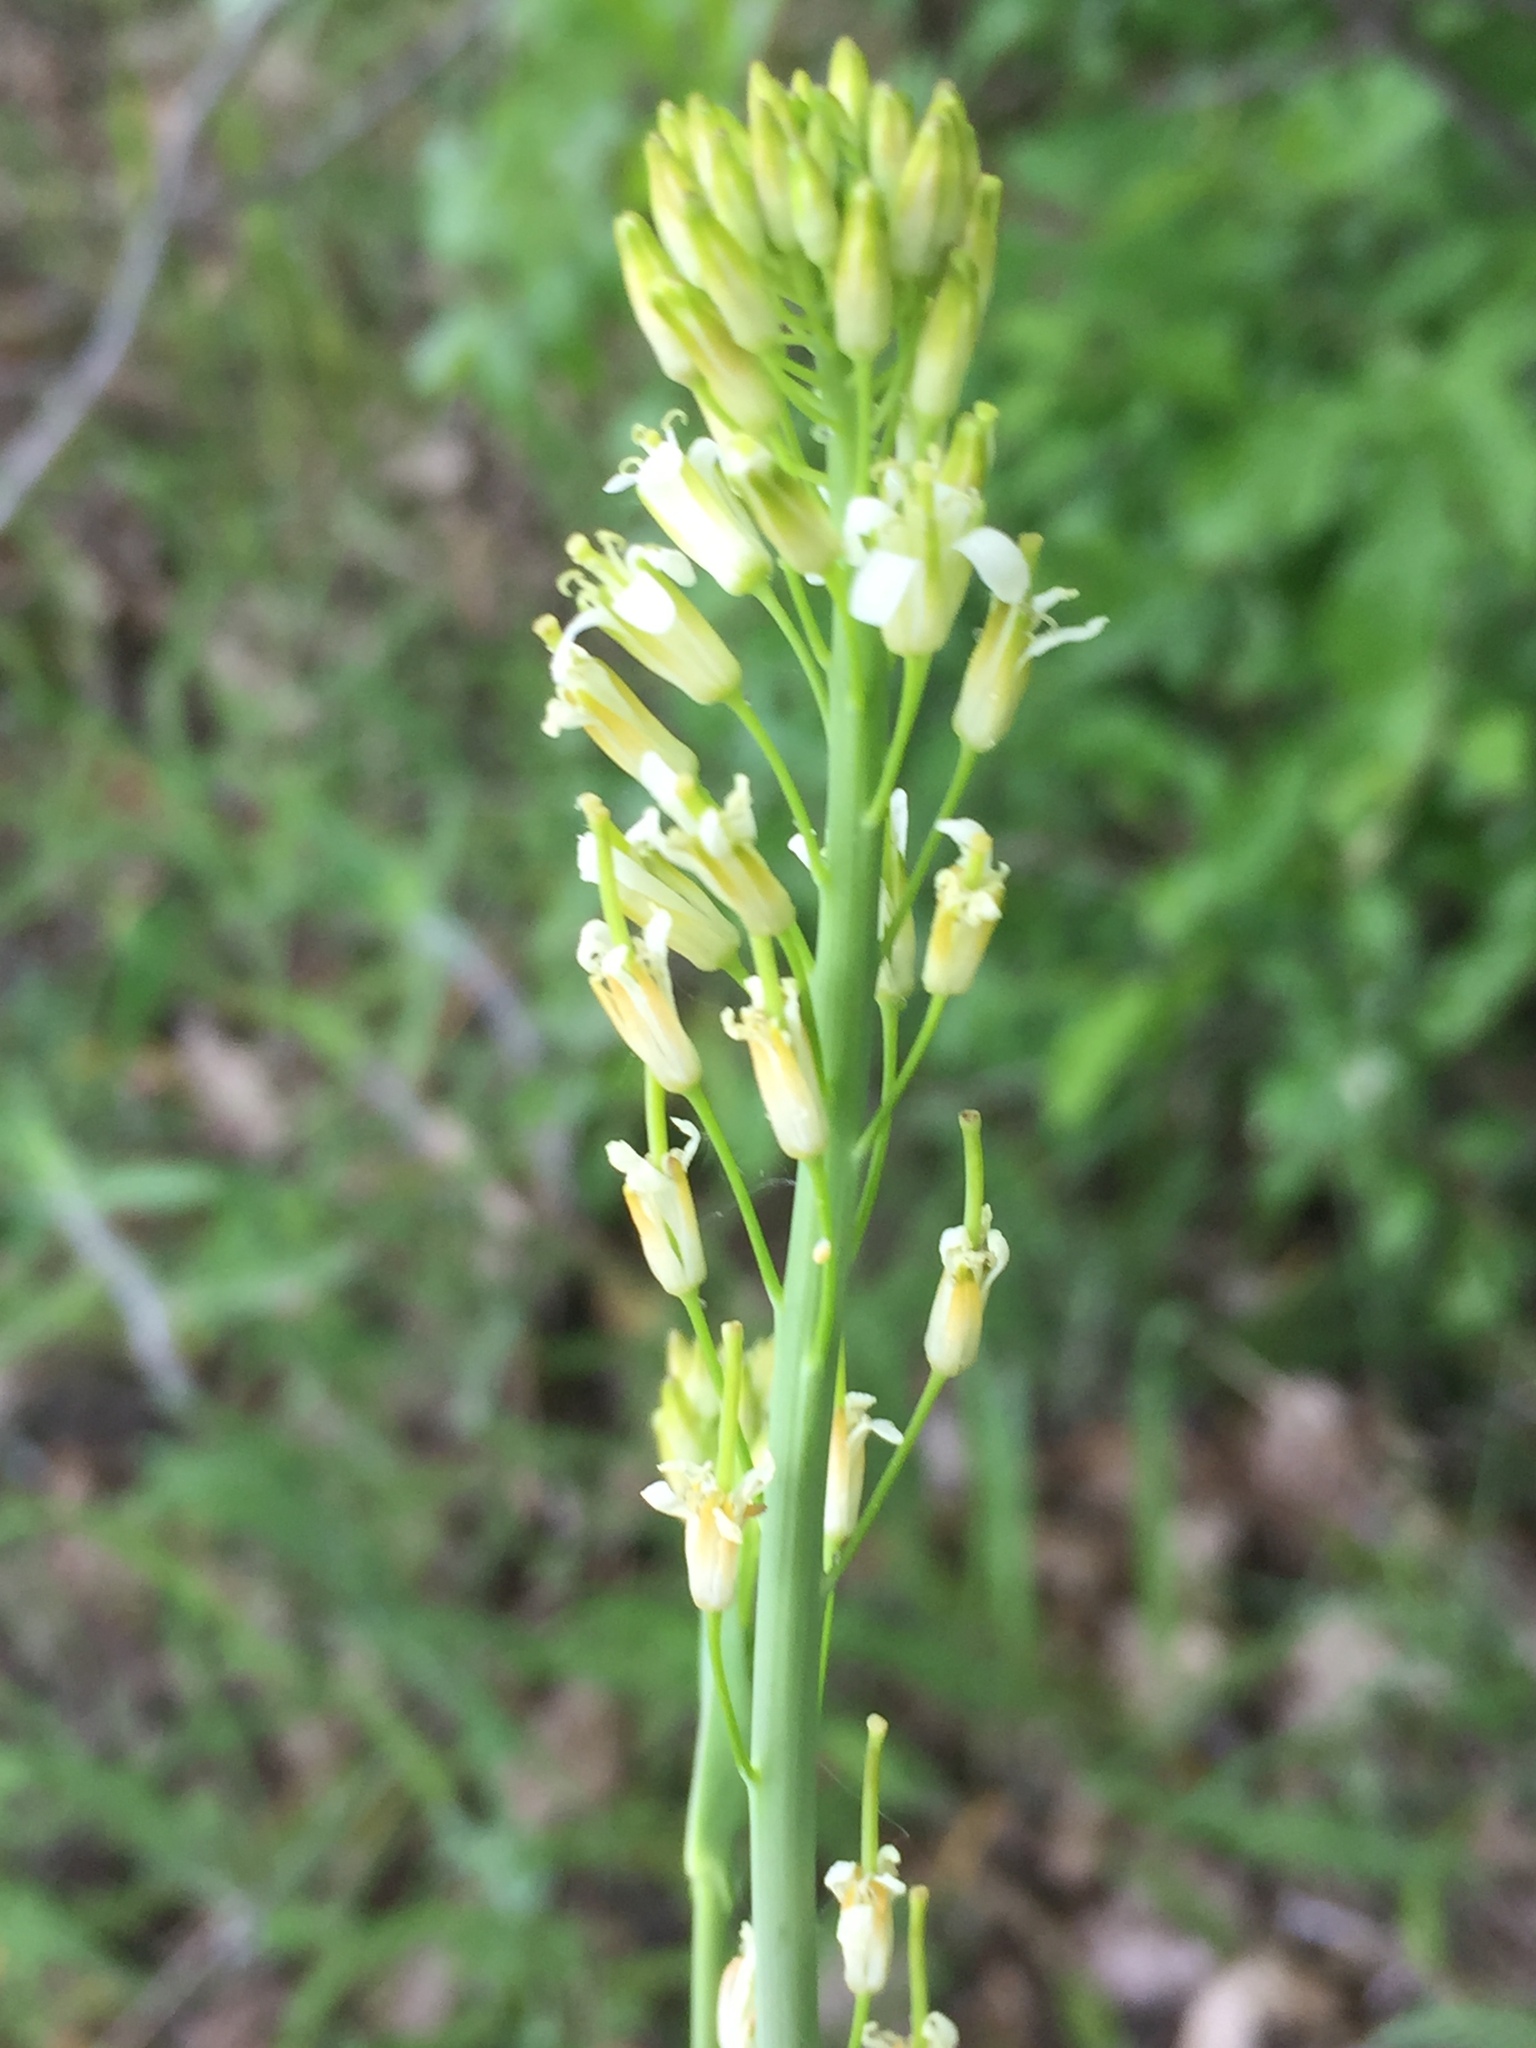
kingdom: Plantae
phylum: Tracheophyta
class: Magnoliopsida
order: Brassicales
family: Brassicaceae
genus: Turritis
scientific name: Turritis glabra
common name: Tower rockcress
